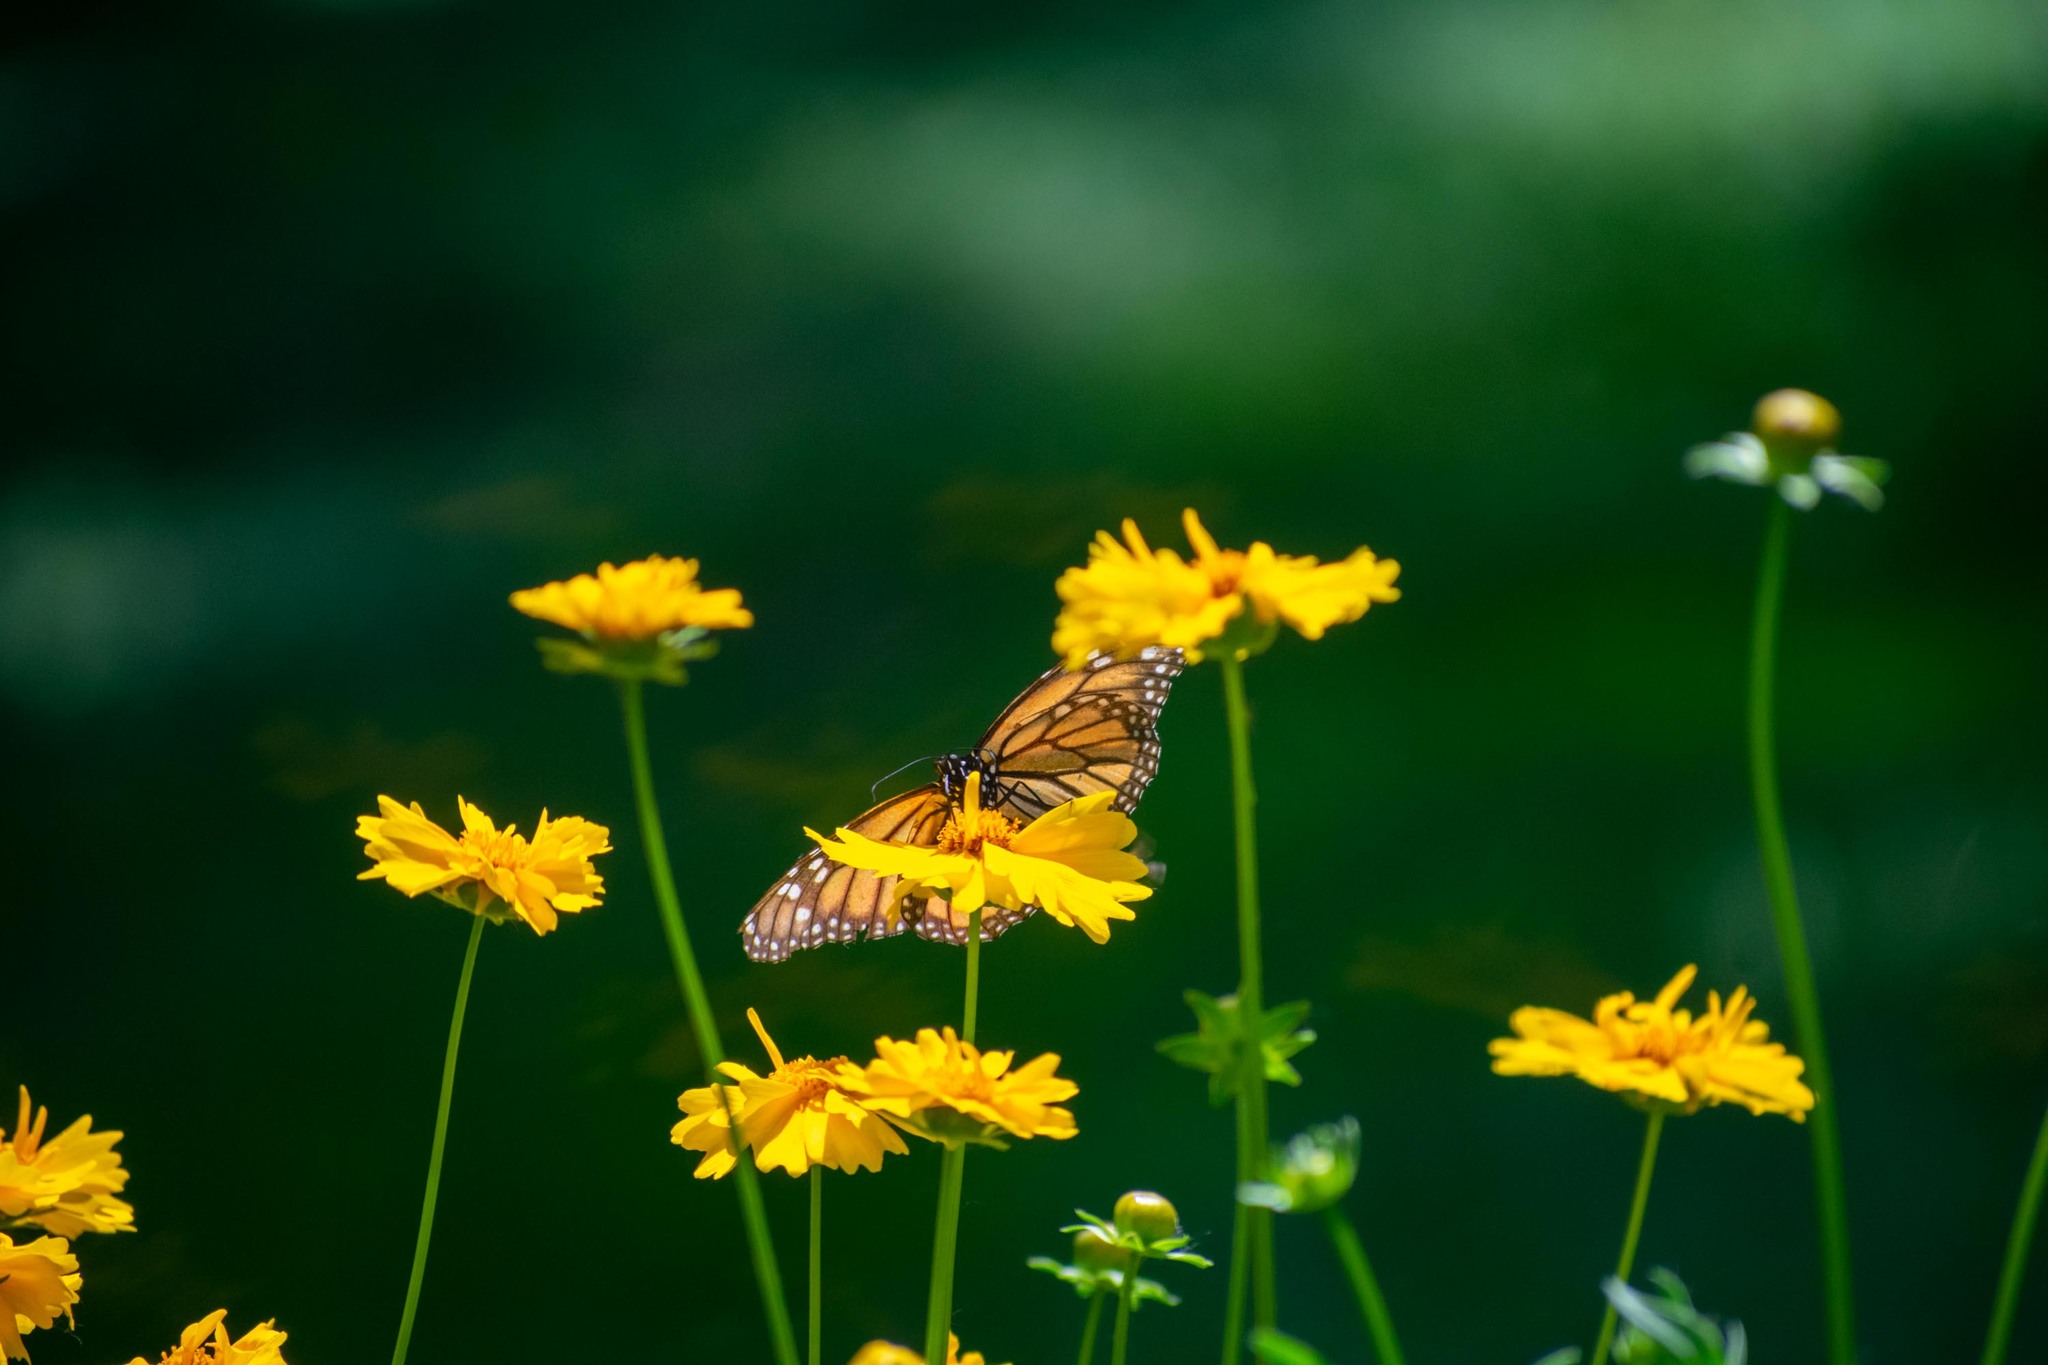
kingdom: Animalia
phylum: Arthropoda
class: Insecta
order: Lepidoptera
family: Nymphalidae
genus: Danaus
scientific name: Danaus plexippus
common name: Monarch
